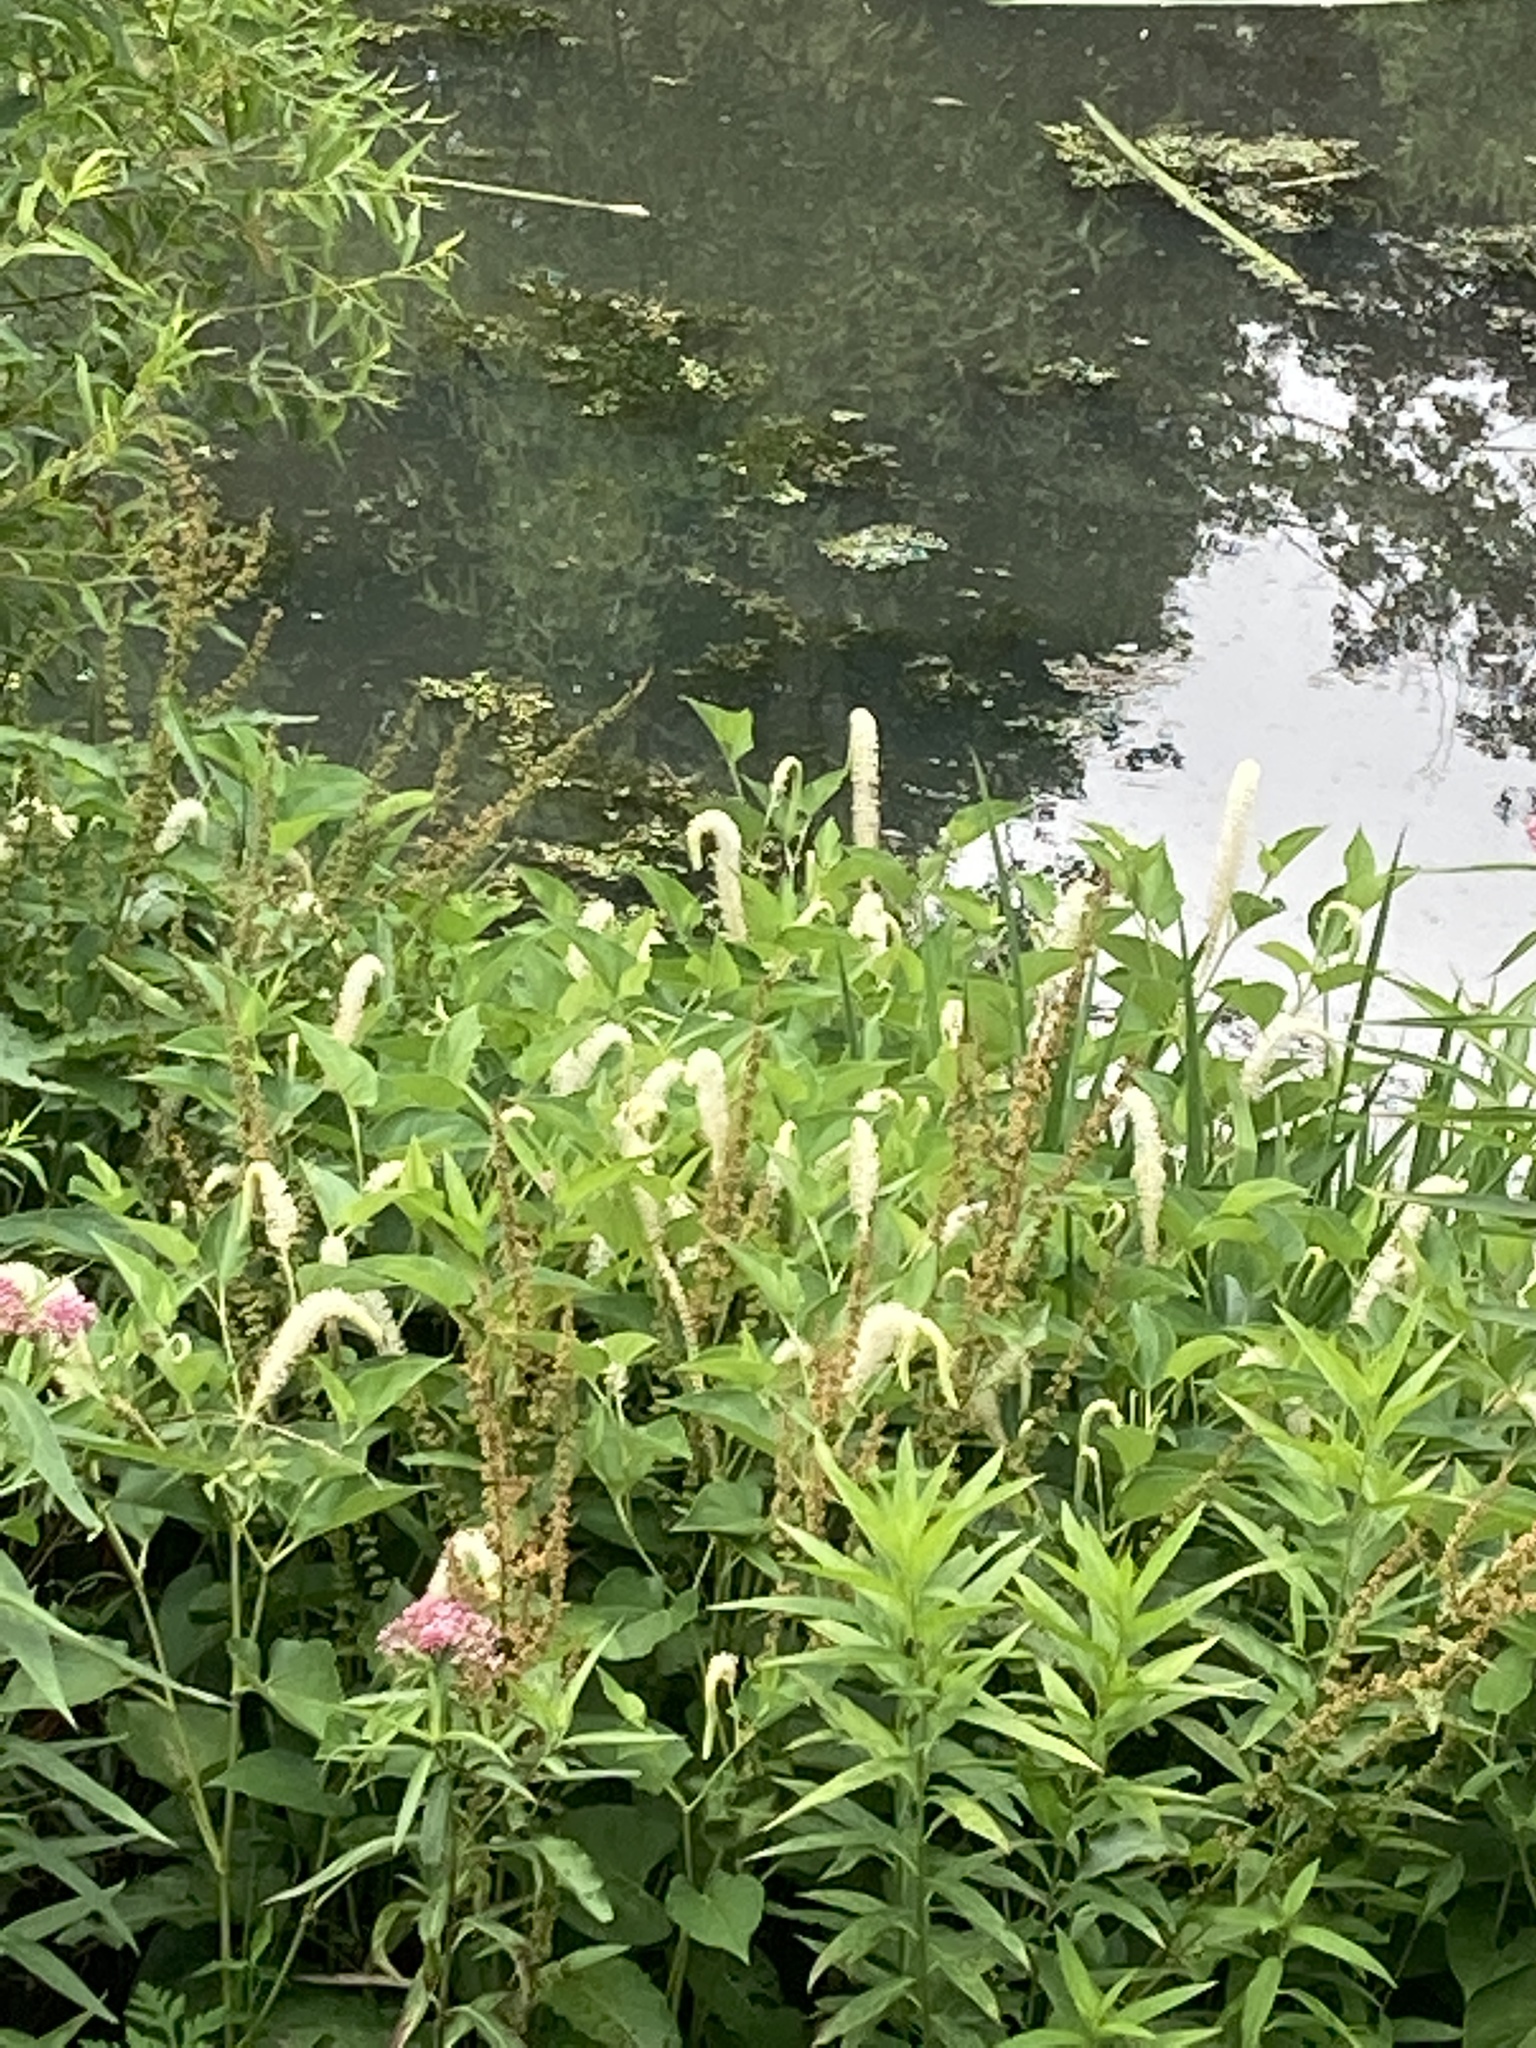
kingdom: Plantae
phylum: Tracheophyta
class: Magnoliopsida
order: Piperales
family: Saururaceae
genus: Saururus
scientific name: Saururus cernuus
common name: Lizard's-tail
